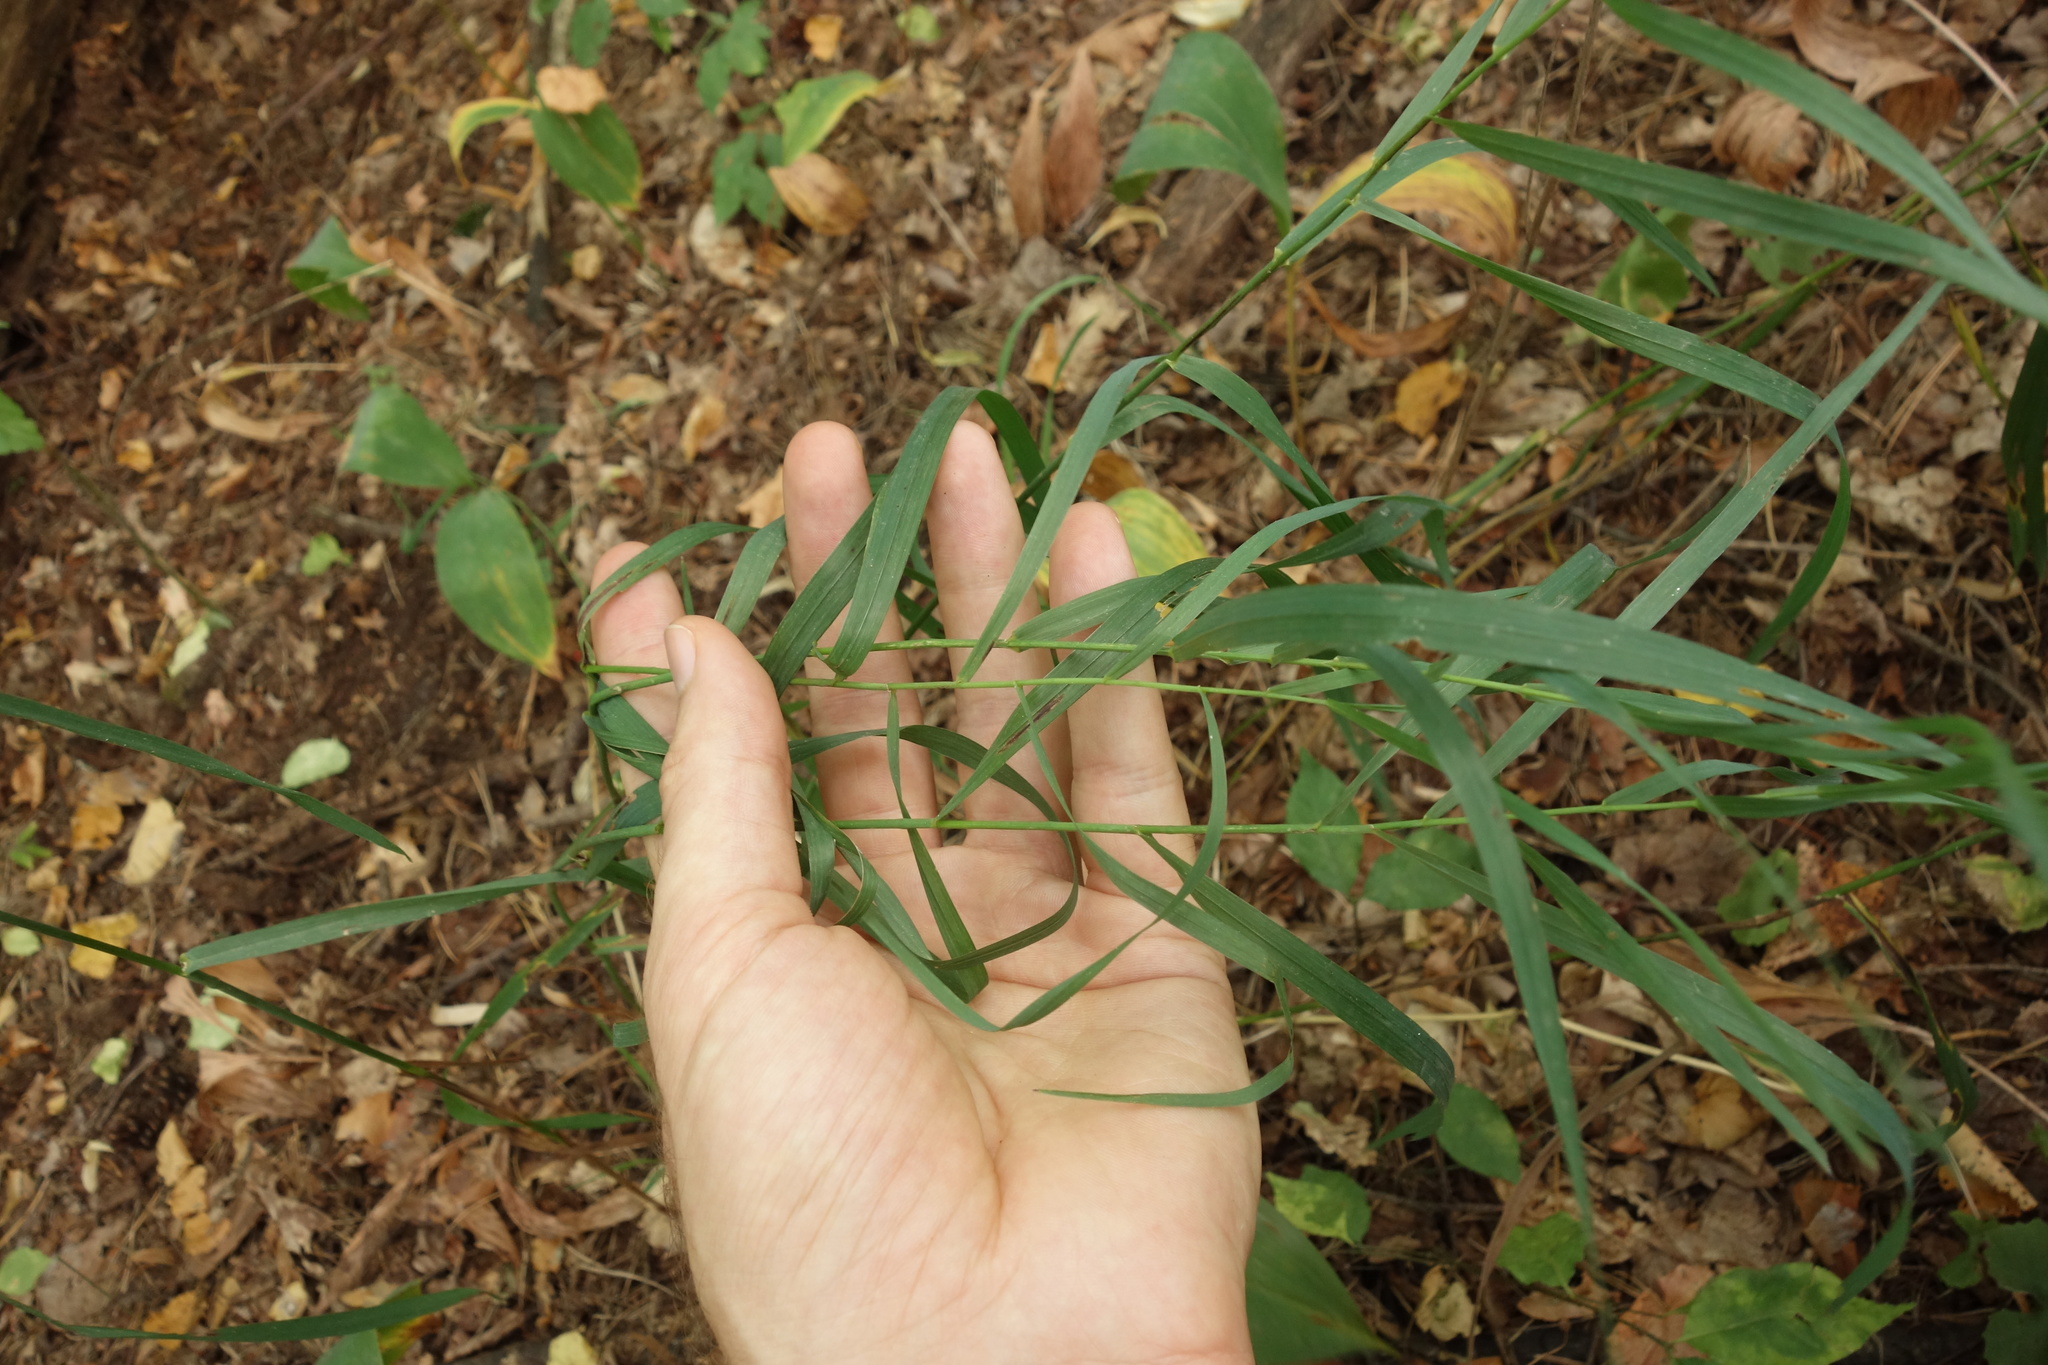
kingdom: Plantae
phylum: Tracheophyta
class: Liliopsida
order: Poales
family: Poaceae
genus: Bromus
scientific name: Bromus inermis
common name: Smooth brome
